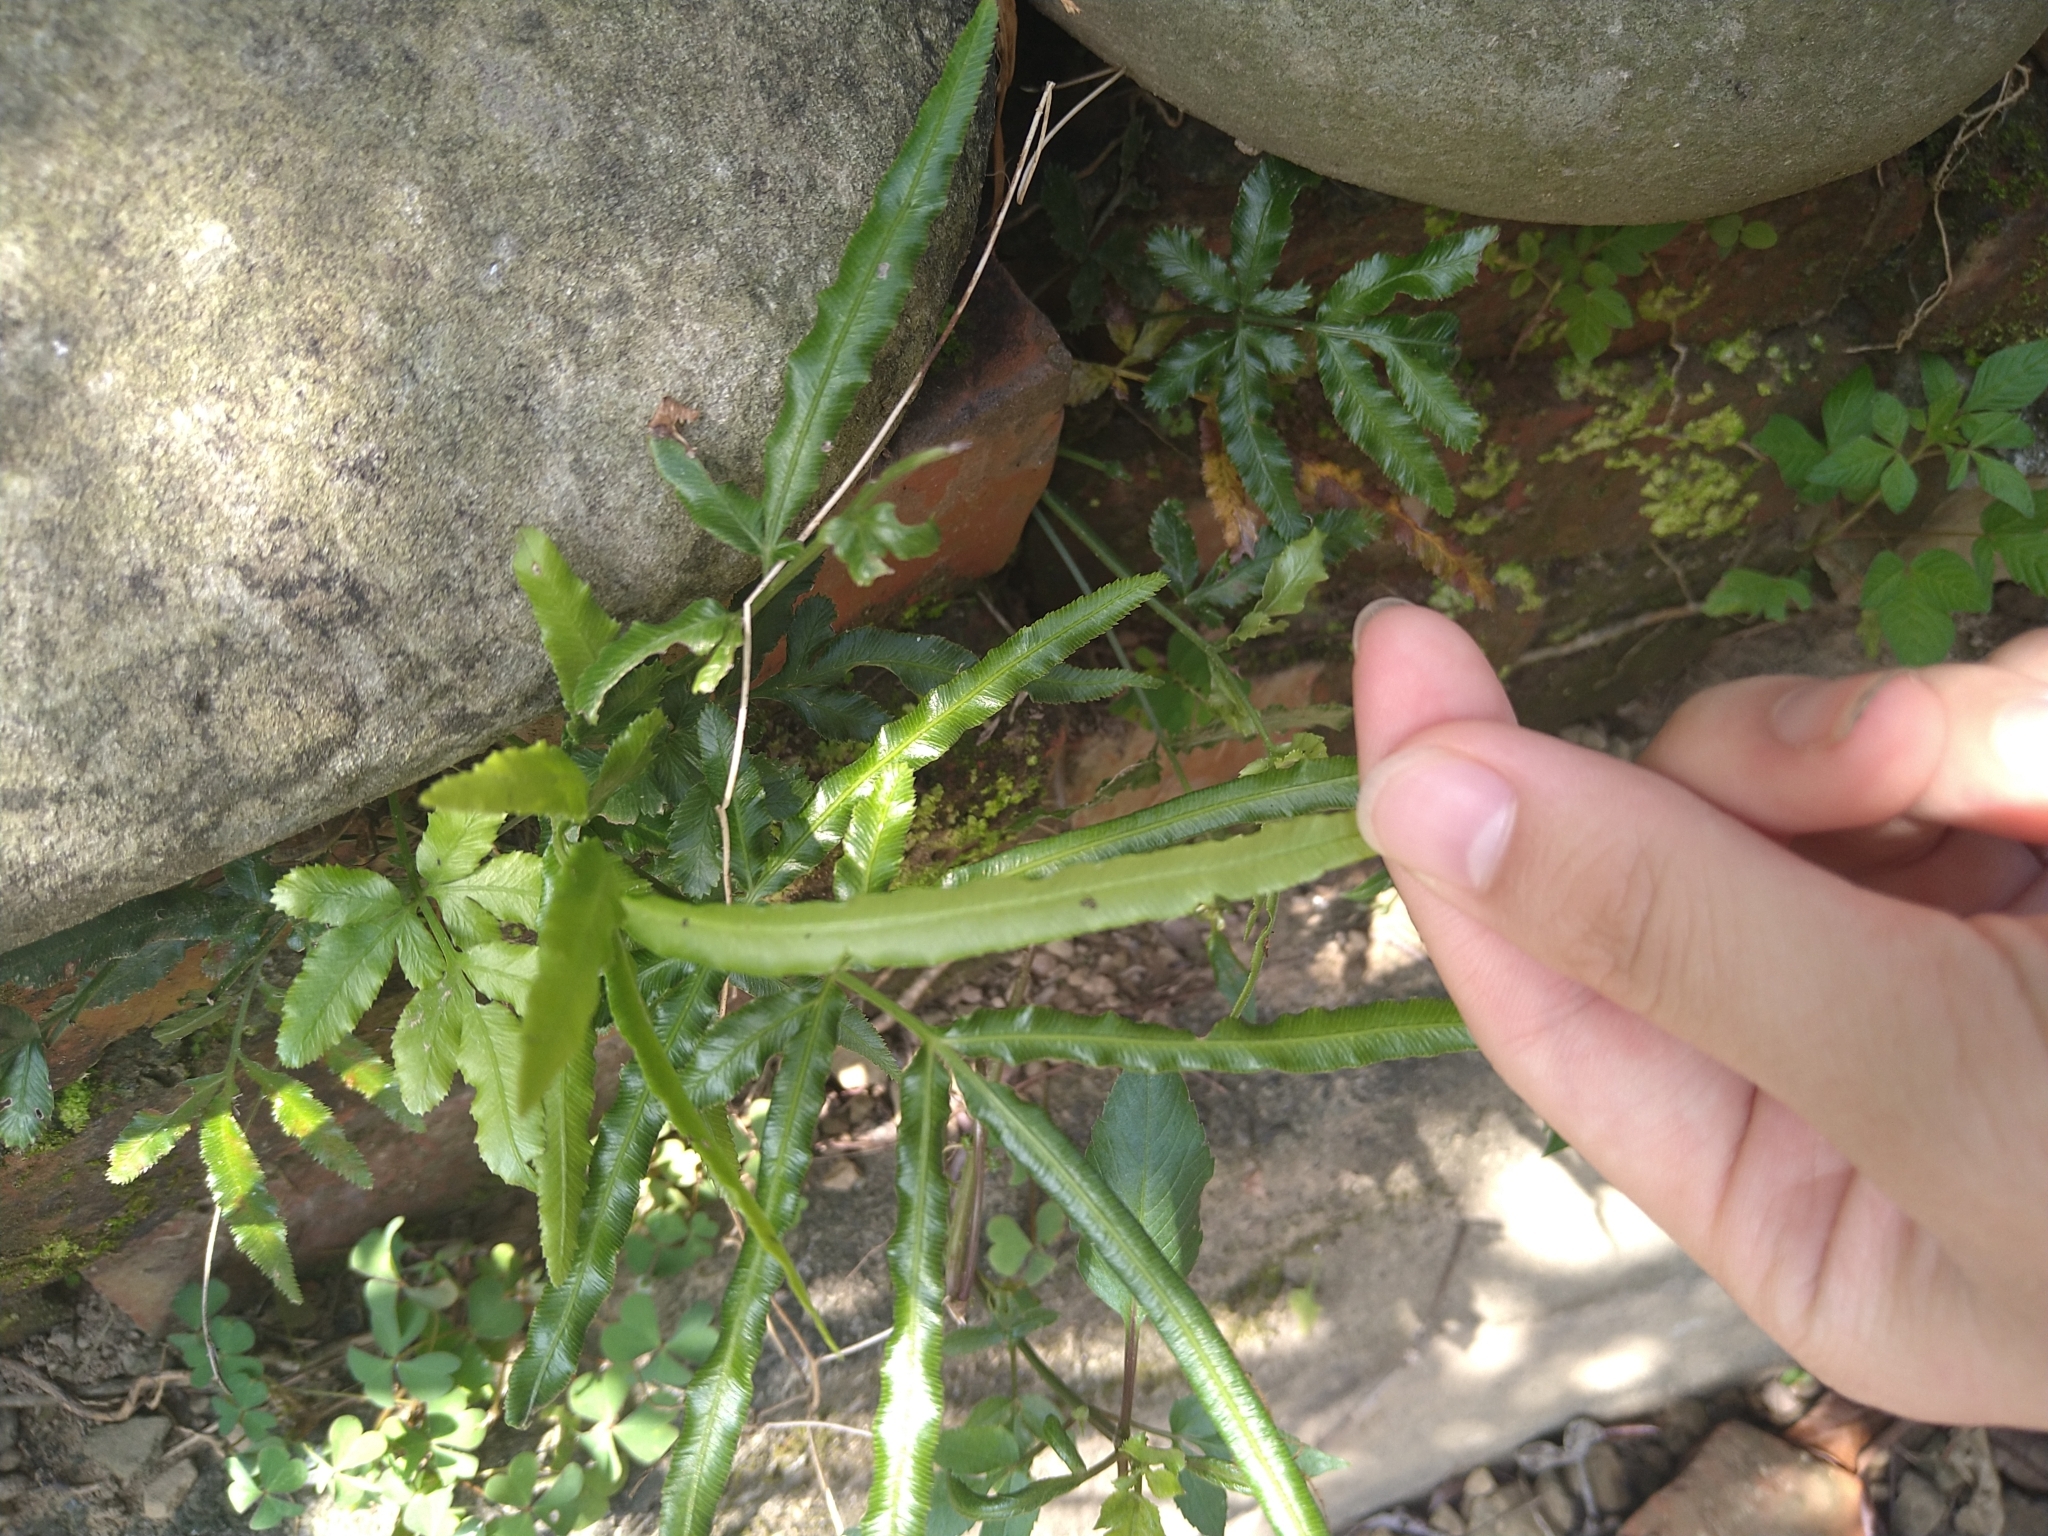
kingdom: Plantae
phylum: Tracheophyta
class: Polypodiopsida
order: Polypodiales
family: Pteridaceae
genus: Pteris
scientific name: Pteris ensiformis
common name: Sword brake
